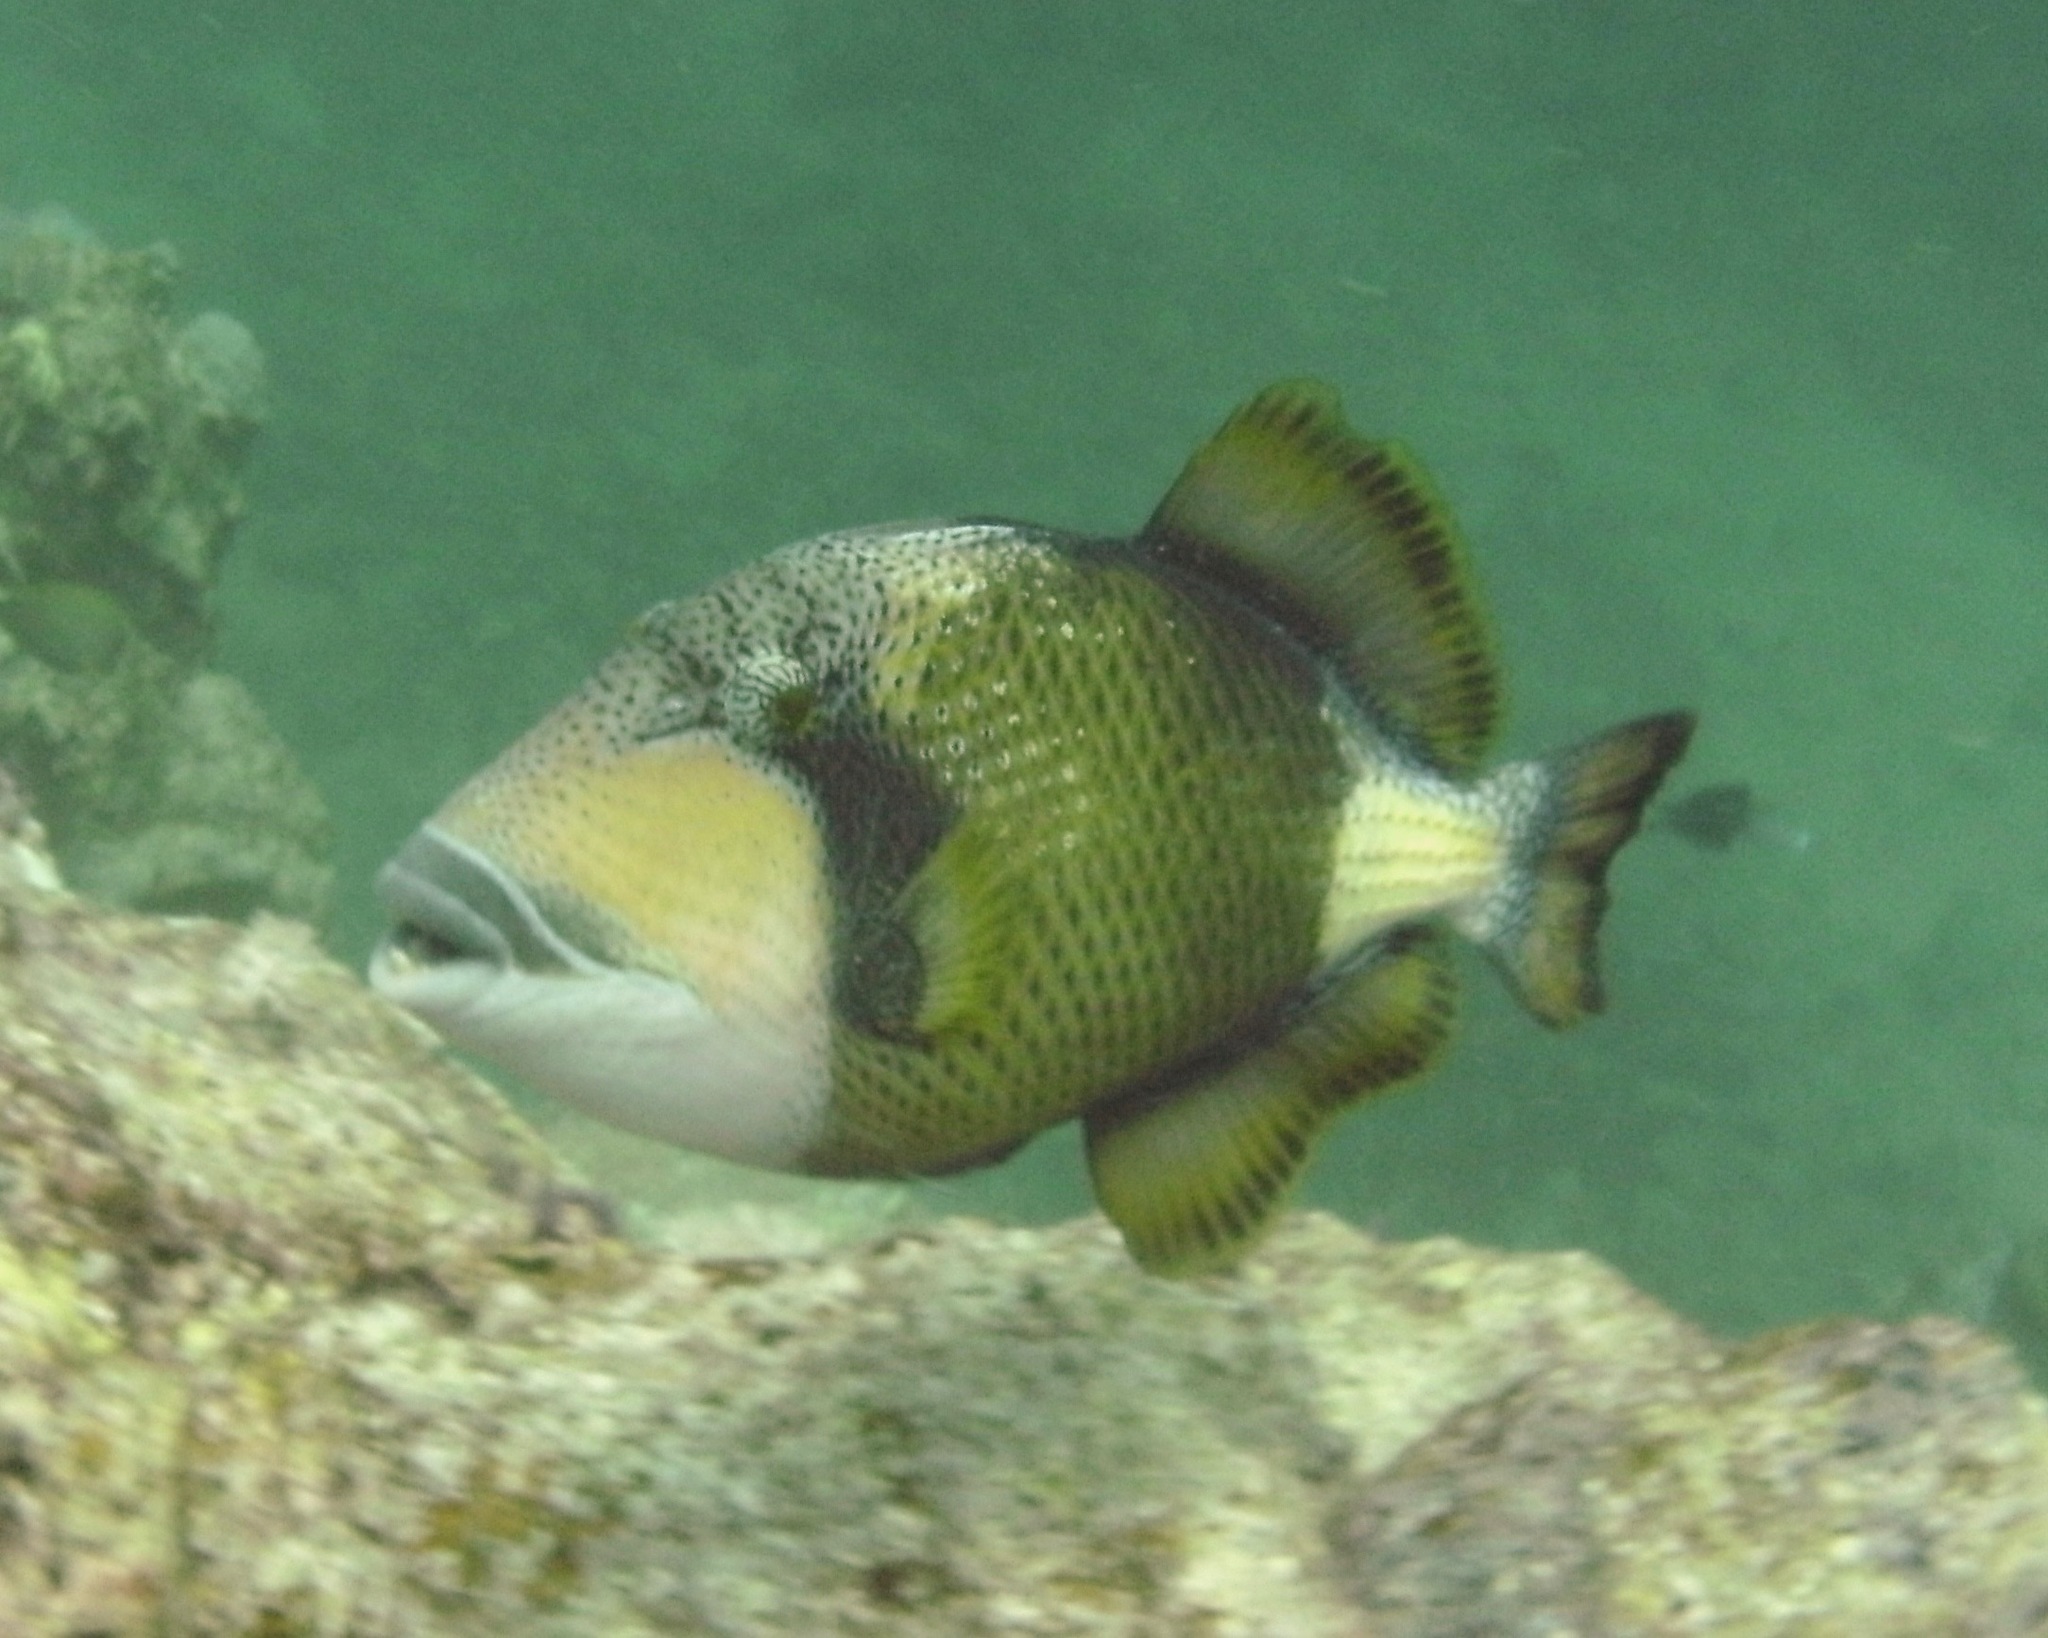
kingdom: Animalia
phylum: Chordata
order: Tetraodontiformes
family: Balistidae
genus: Balistoides
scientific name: Balistoides viridescens
